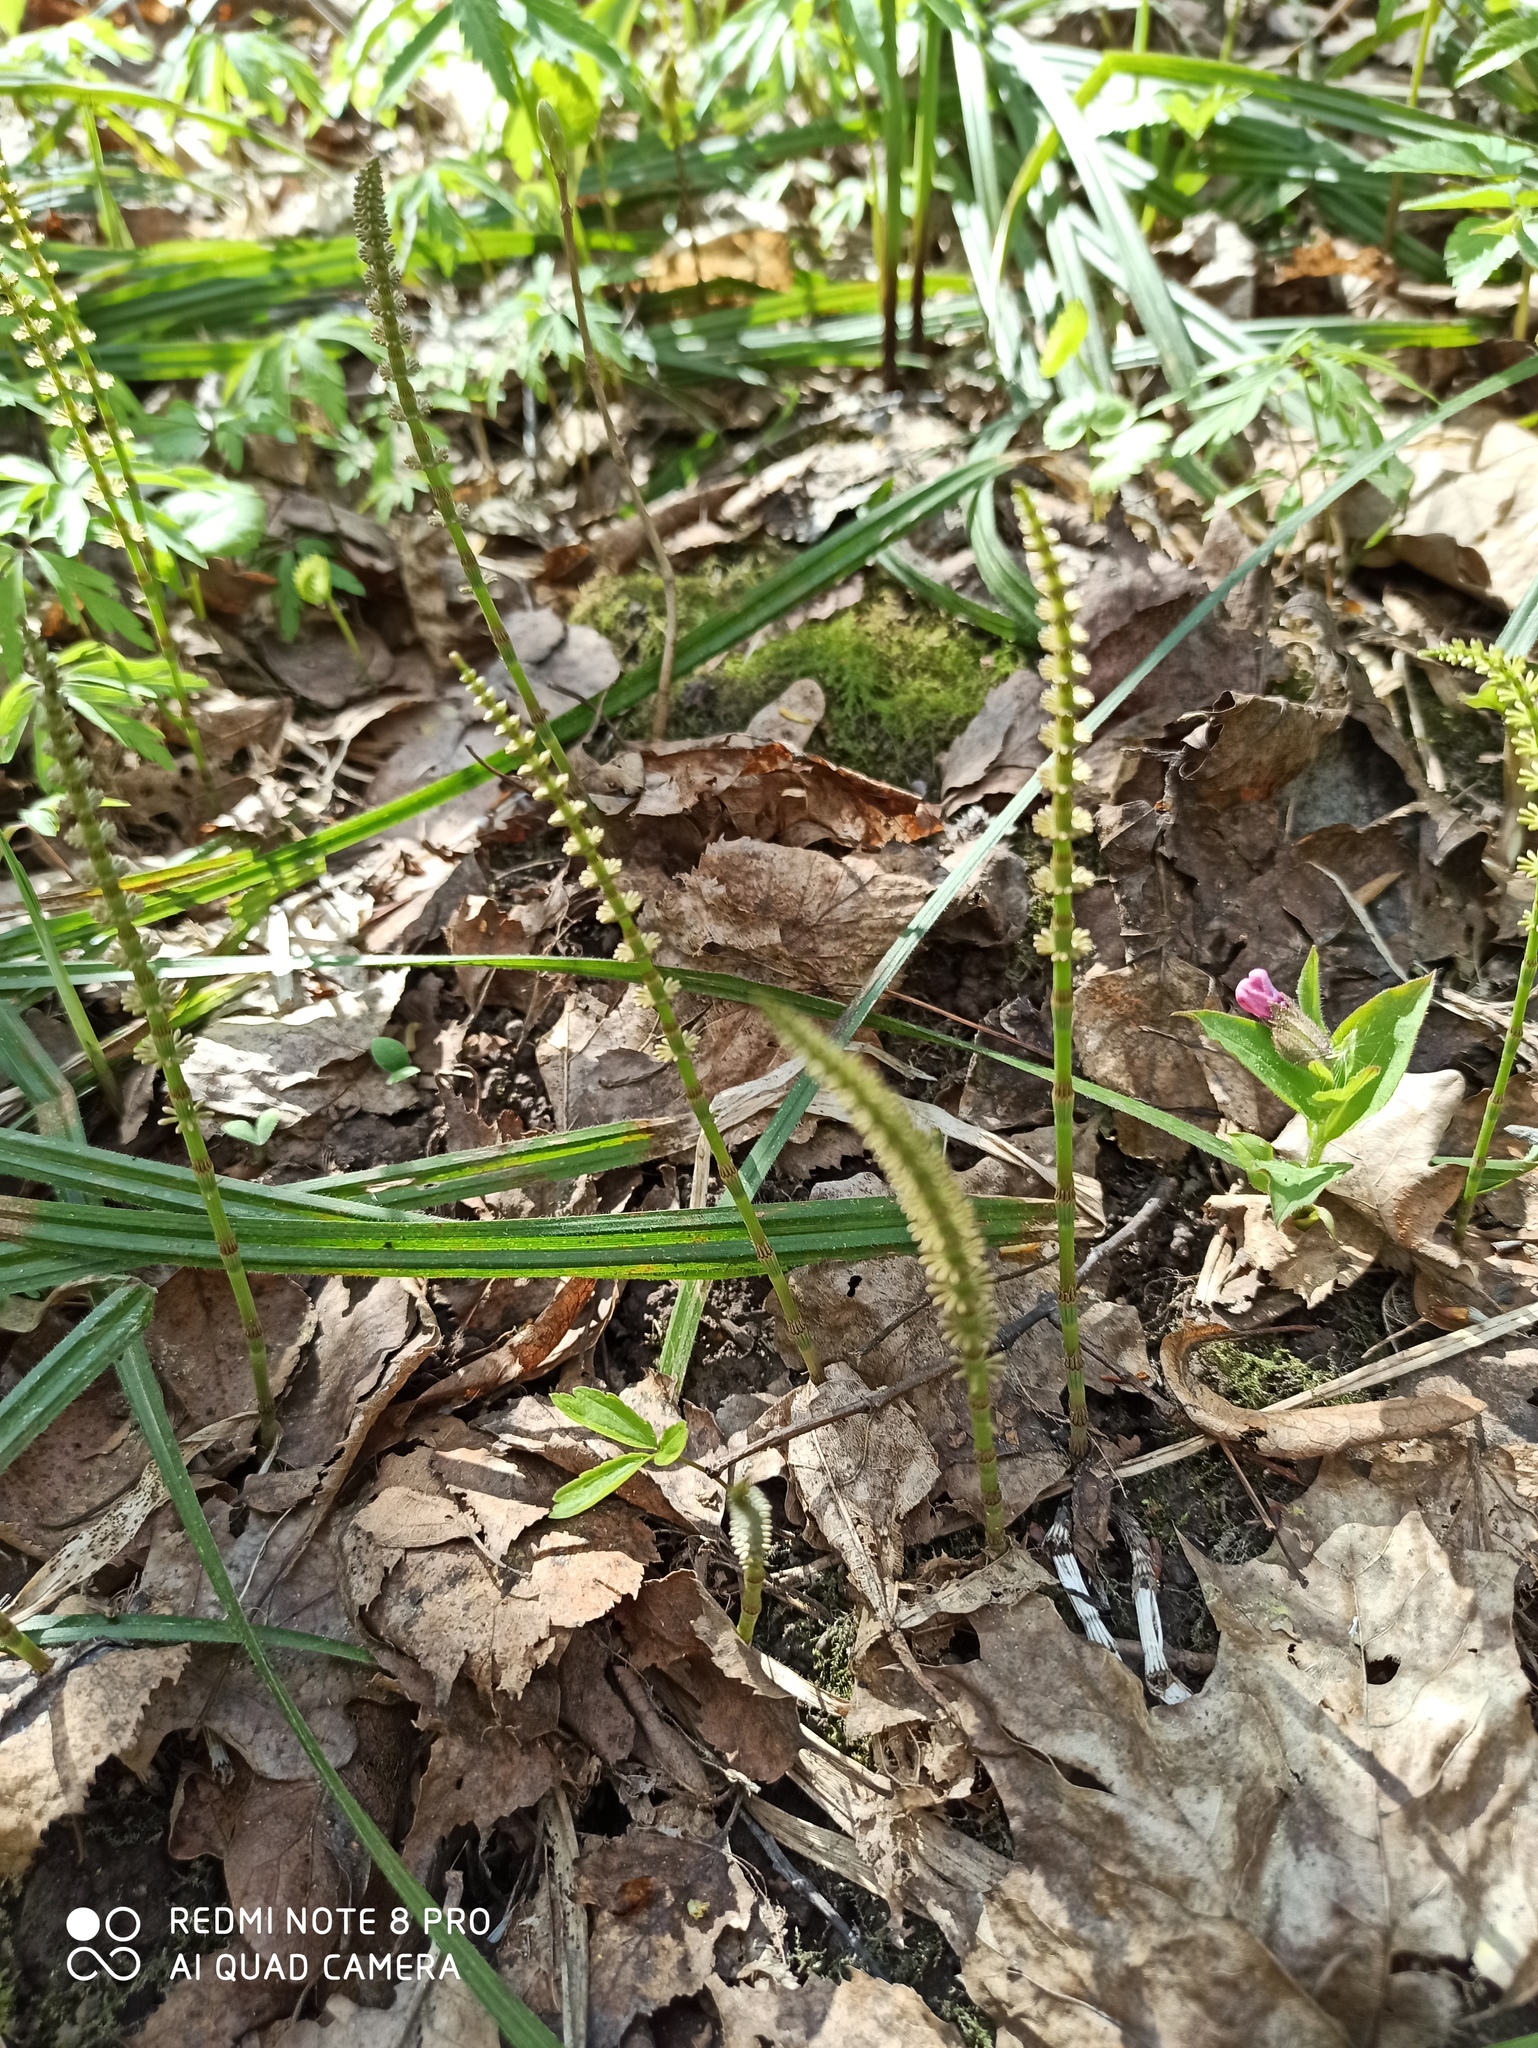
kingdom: Plantae
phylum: Tracheophyta
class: Polypodiopsida
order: Equisetales
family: Equisetaceae
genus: Equisetum
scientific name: Equisetum pratense
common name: Meadow horsetail
